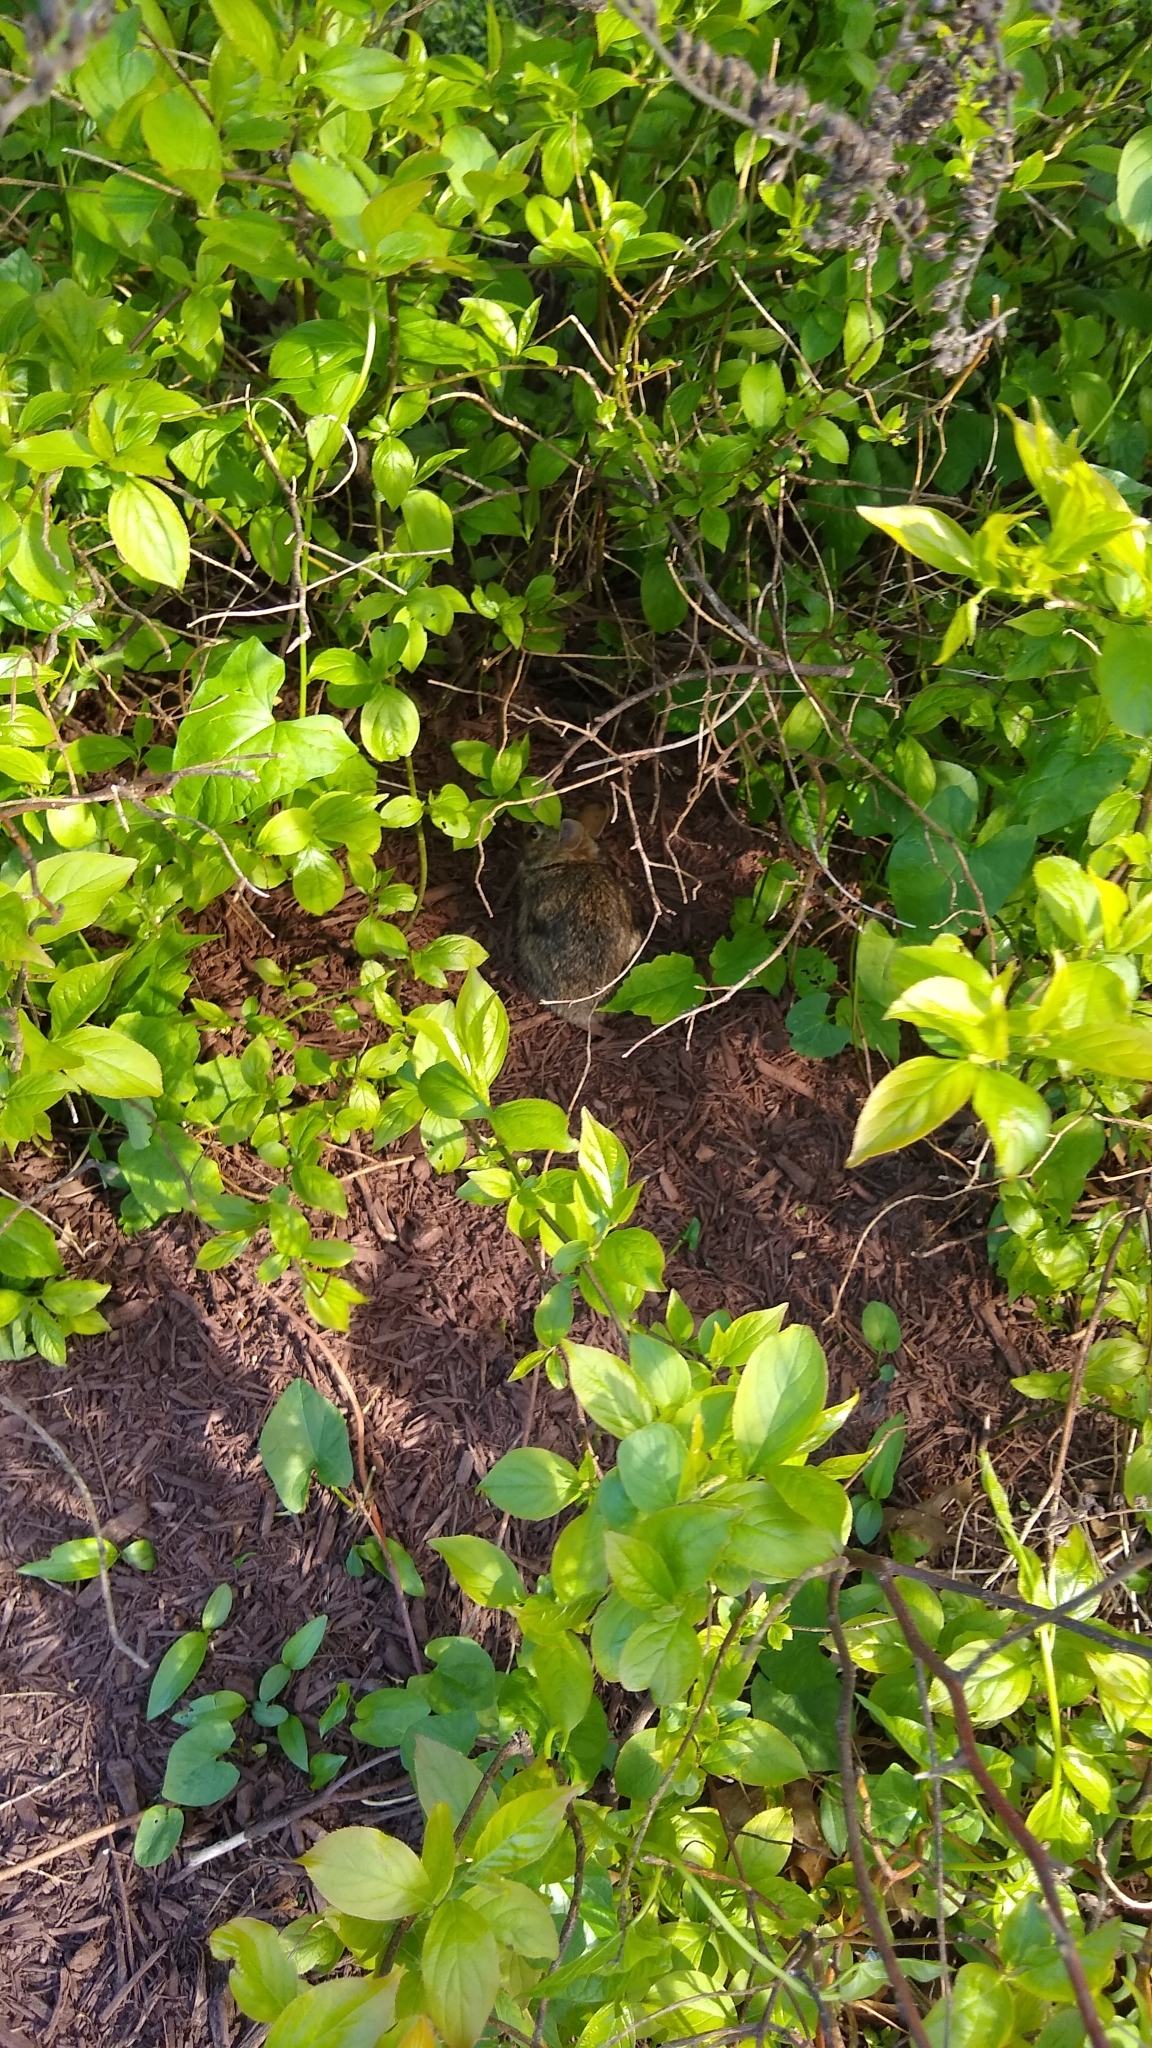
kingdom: Animalia
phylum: Chordata
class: Mammalia
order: Lagomorpha
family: Leporidae
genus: Sylvilagus
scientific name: Sylvilagus floridanus
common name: Eastern cottontail
